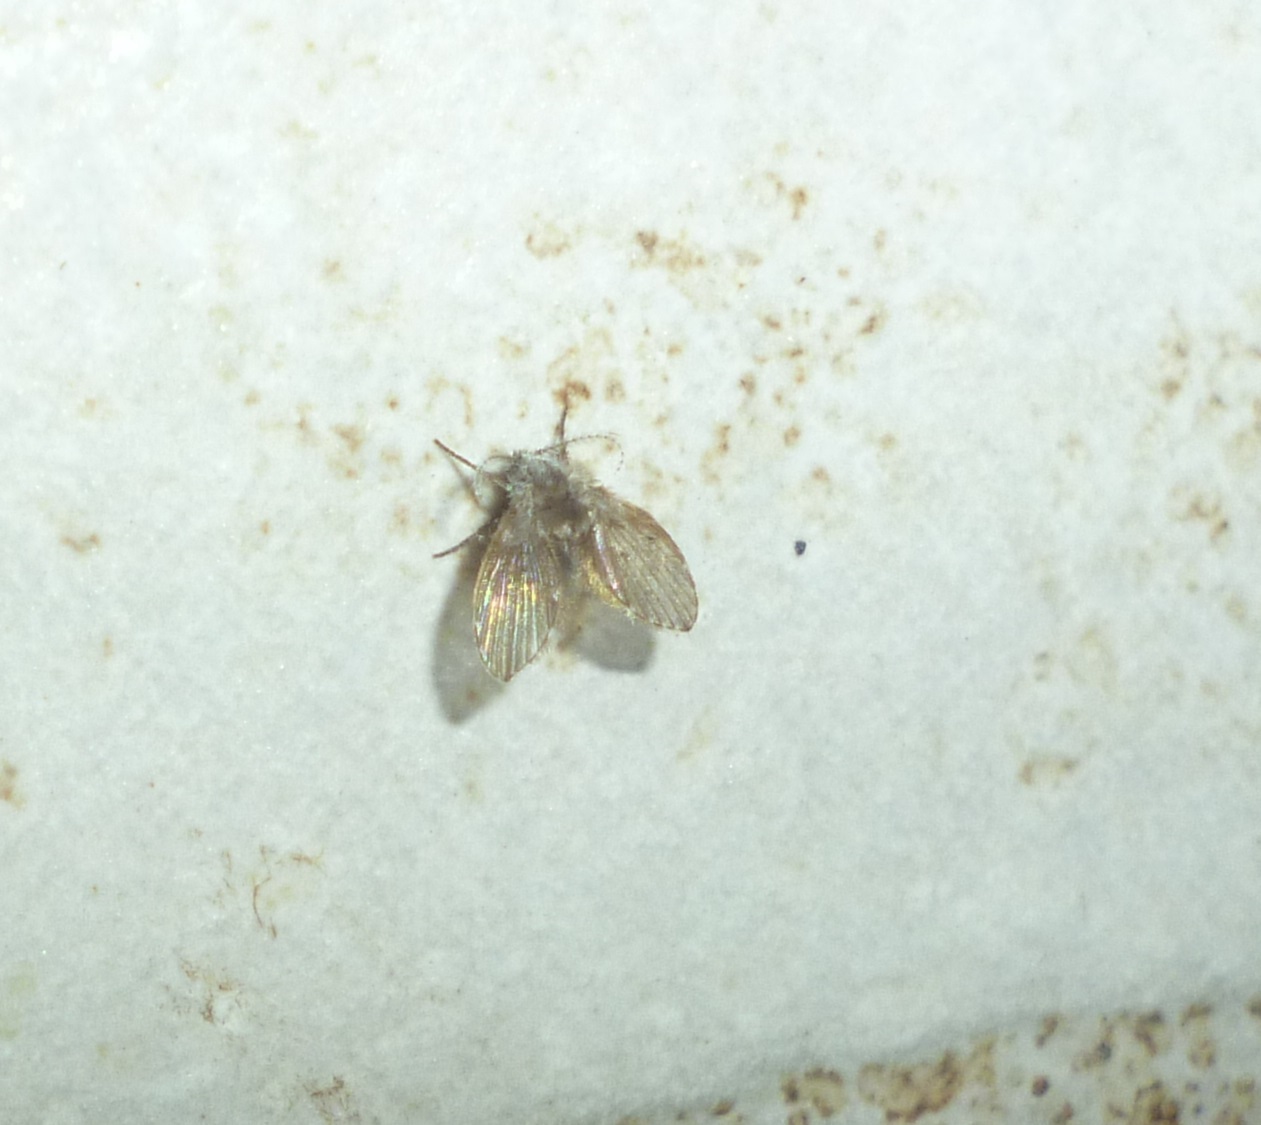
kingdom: Animalia
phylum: Arthropoda
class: Insecta
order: Diptera
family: Psychodidae
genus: Clogmia
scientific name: Clogmia albipunctatus
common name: White-spotted moth fly
